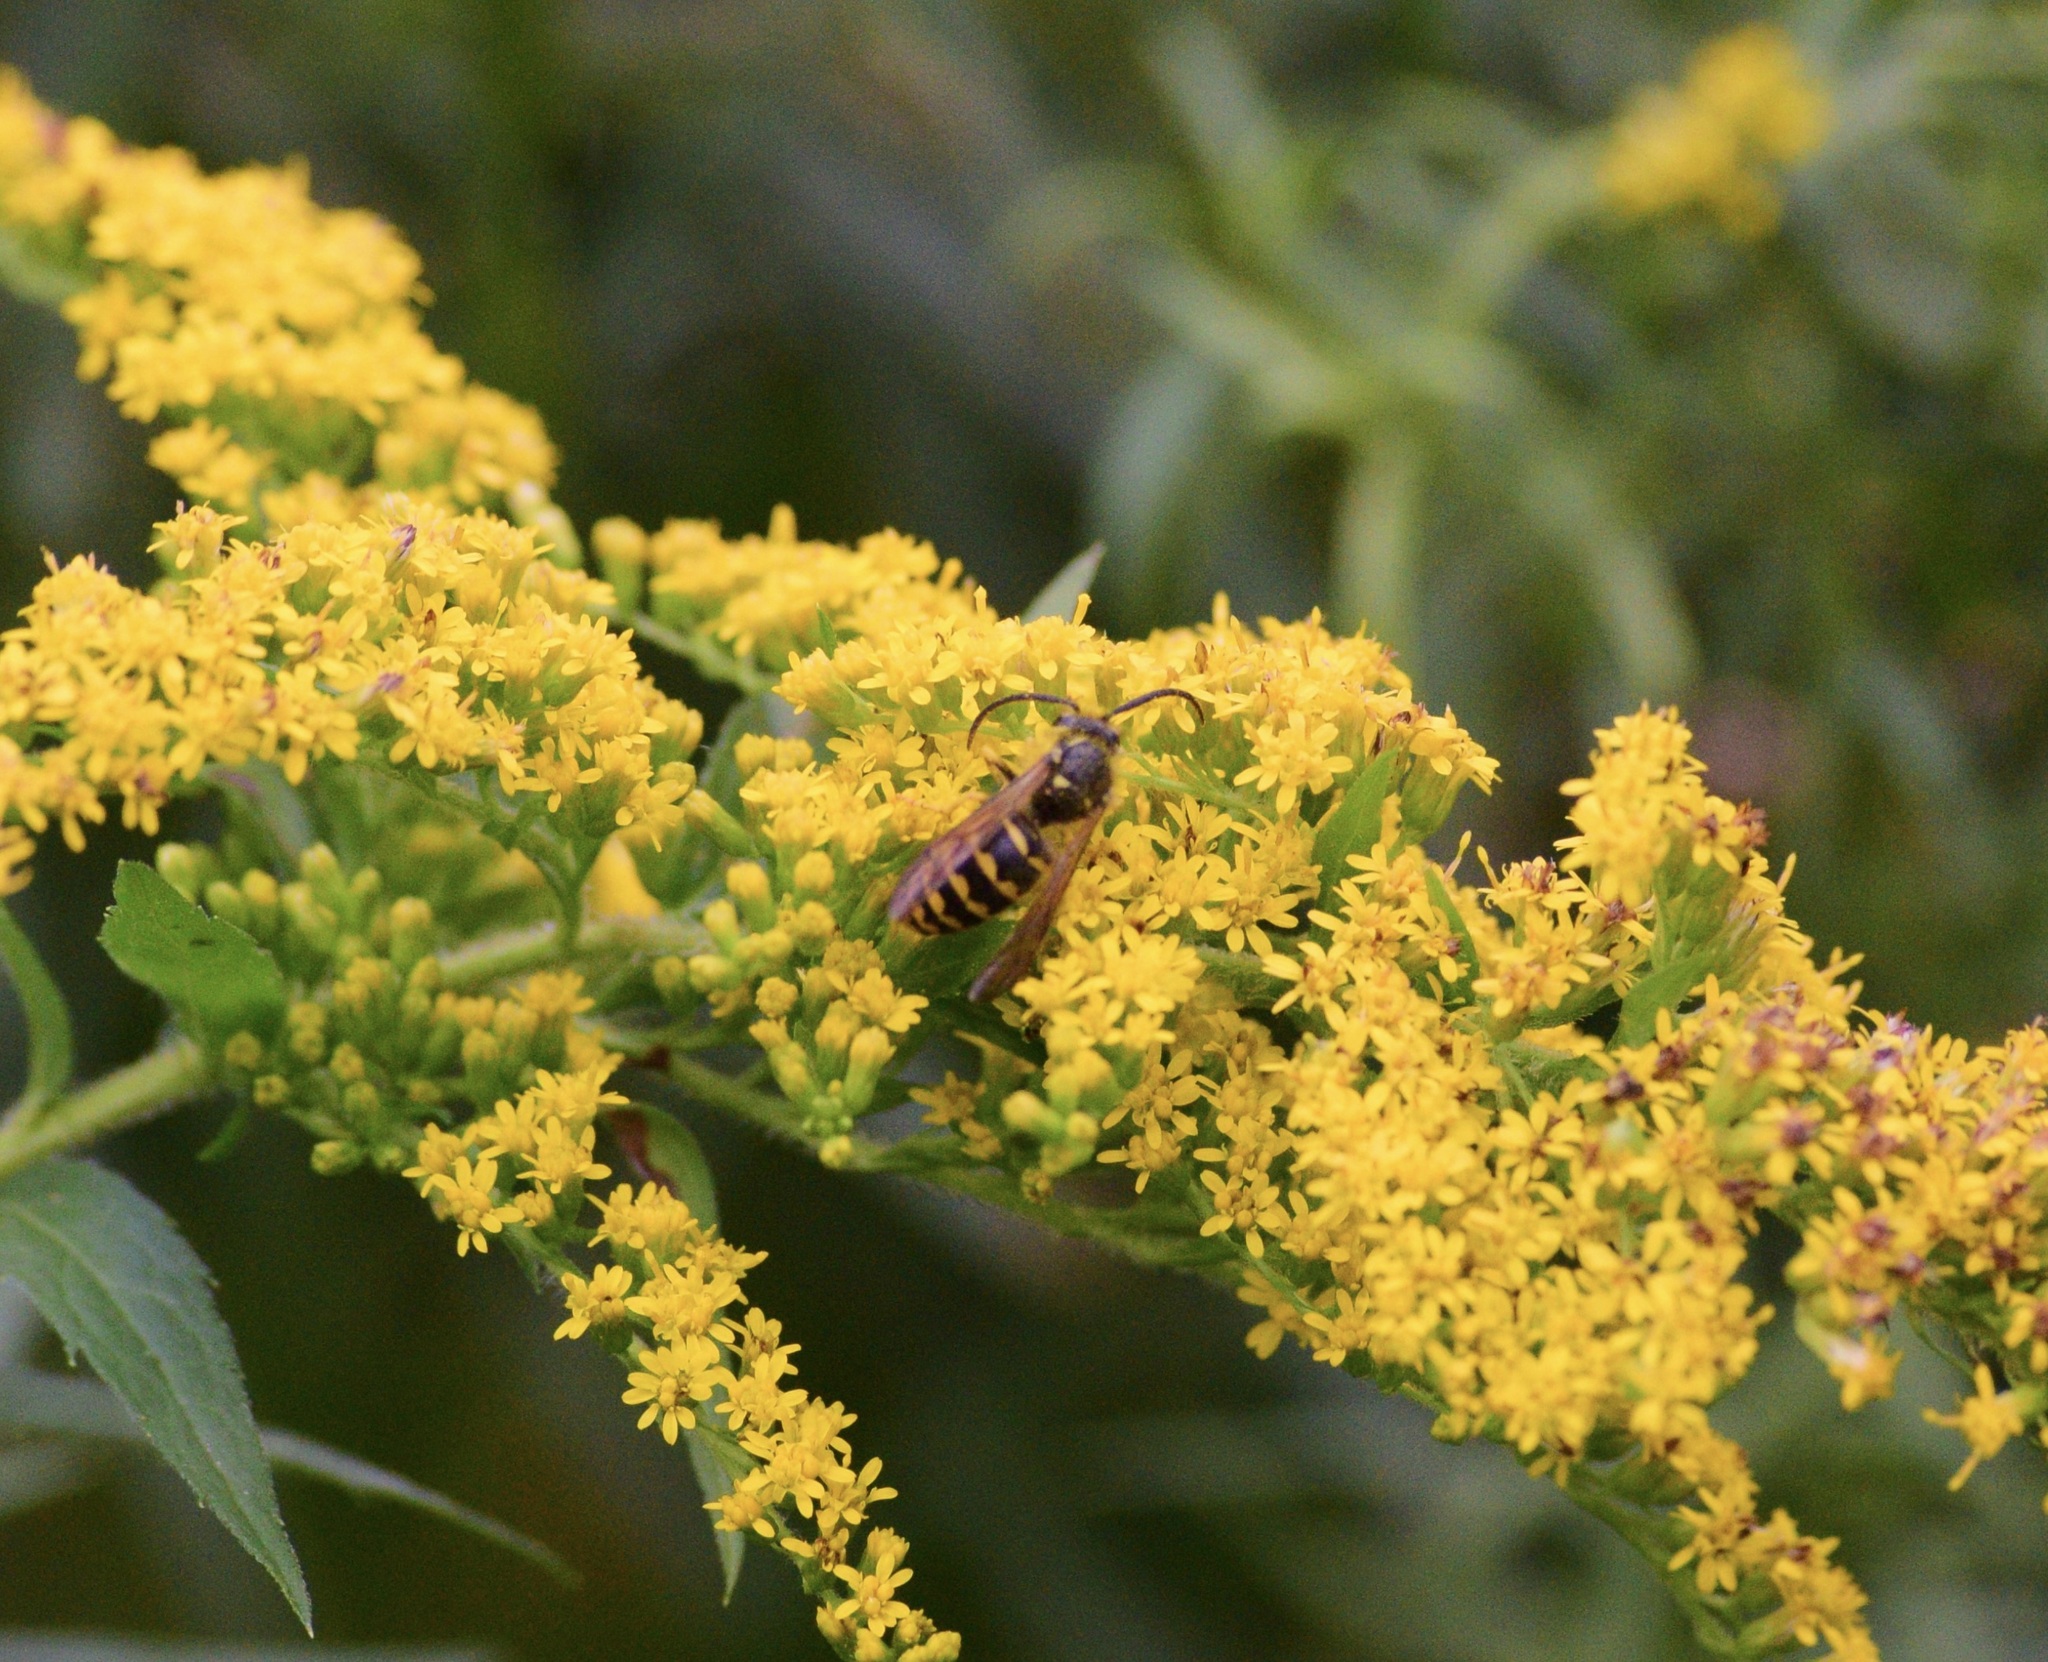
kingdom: Animalia
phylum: Arthropoda
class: Insecta
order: Hymenoptera
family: Vespidae
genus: Dolichovespula
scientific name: Dolichovespula arenaria
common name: Aerial yellowjacket
